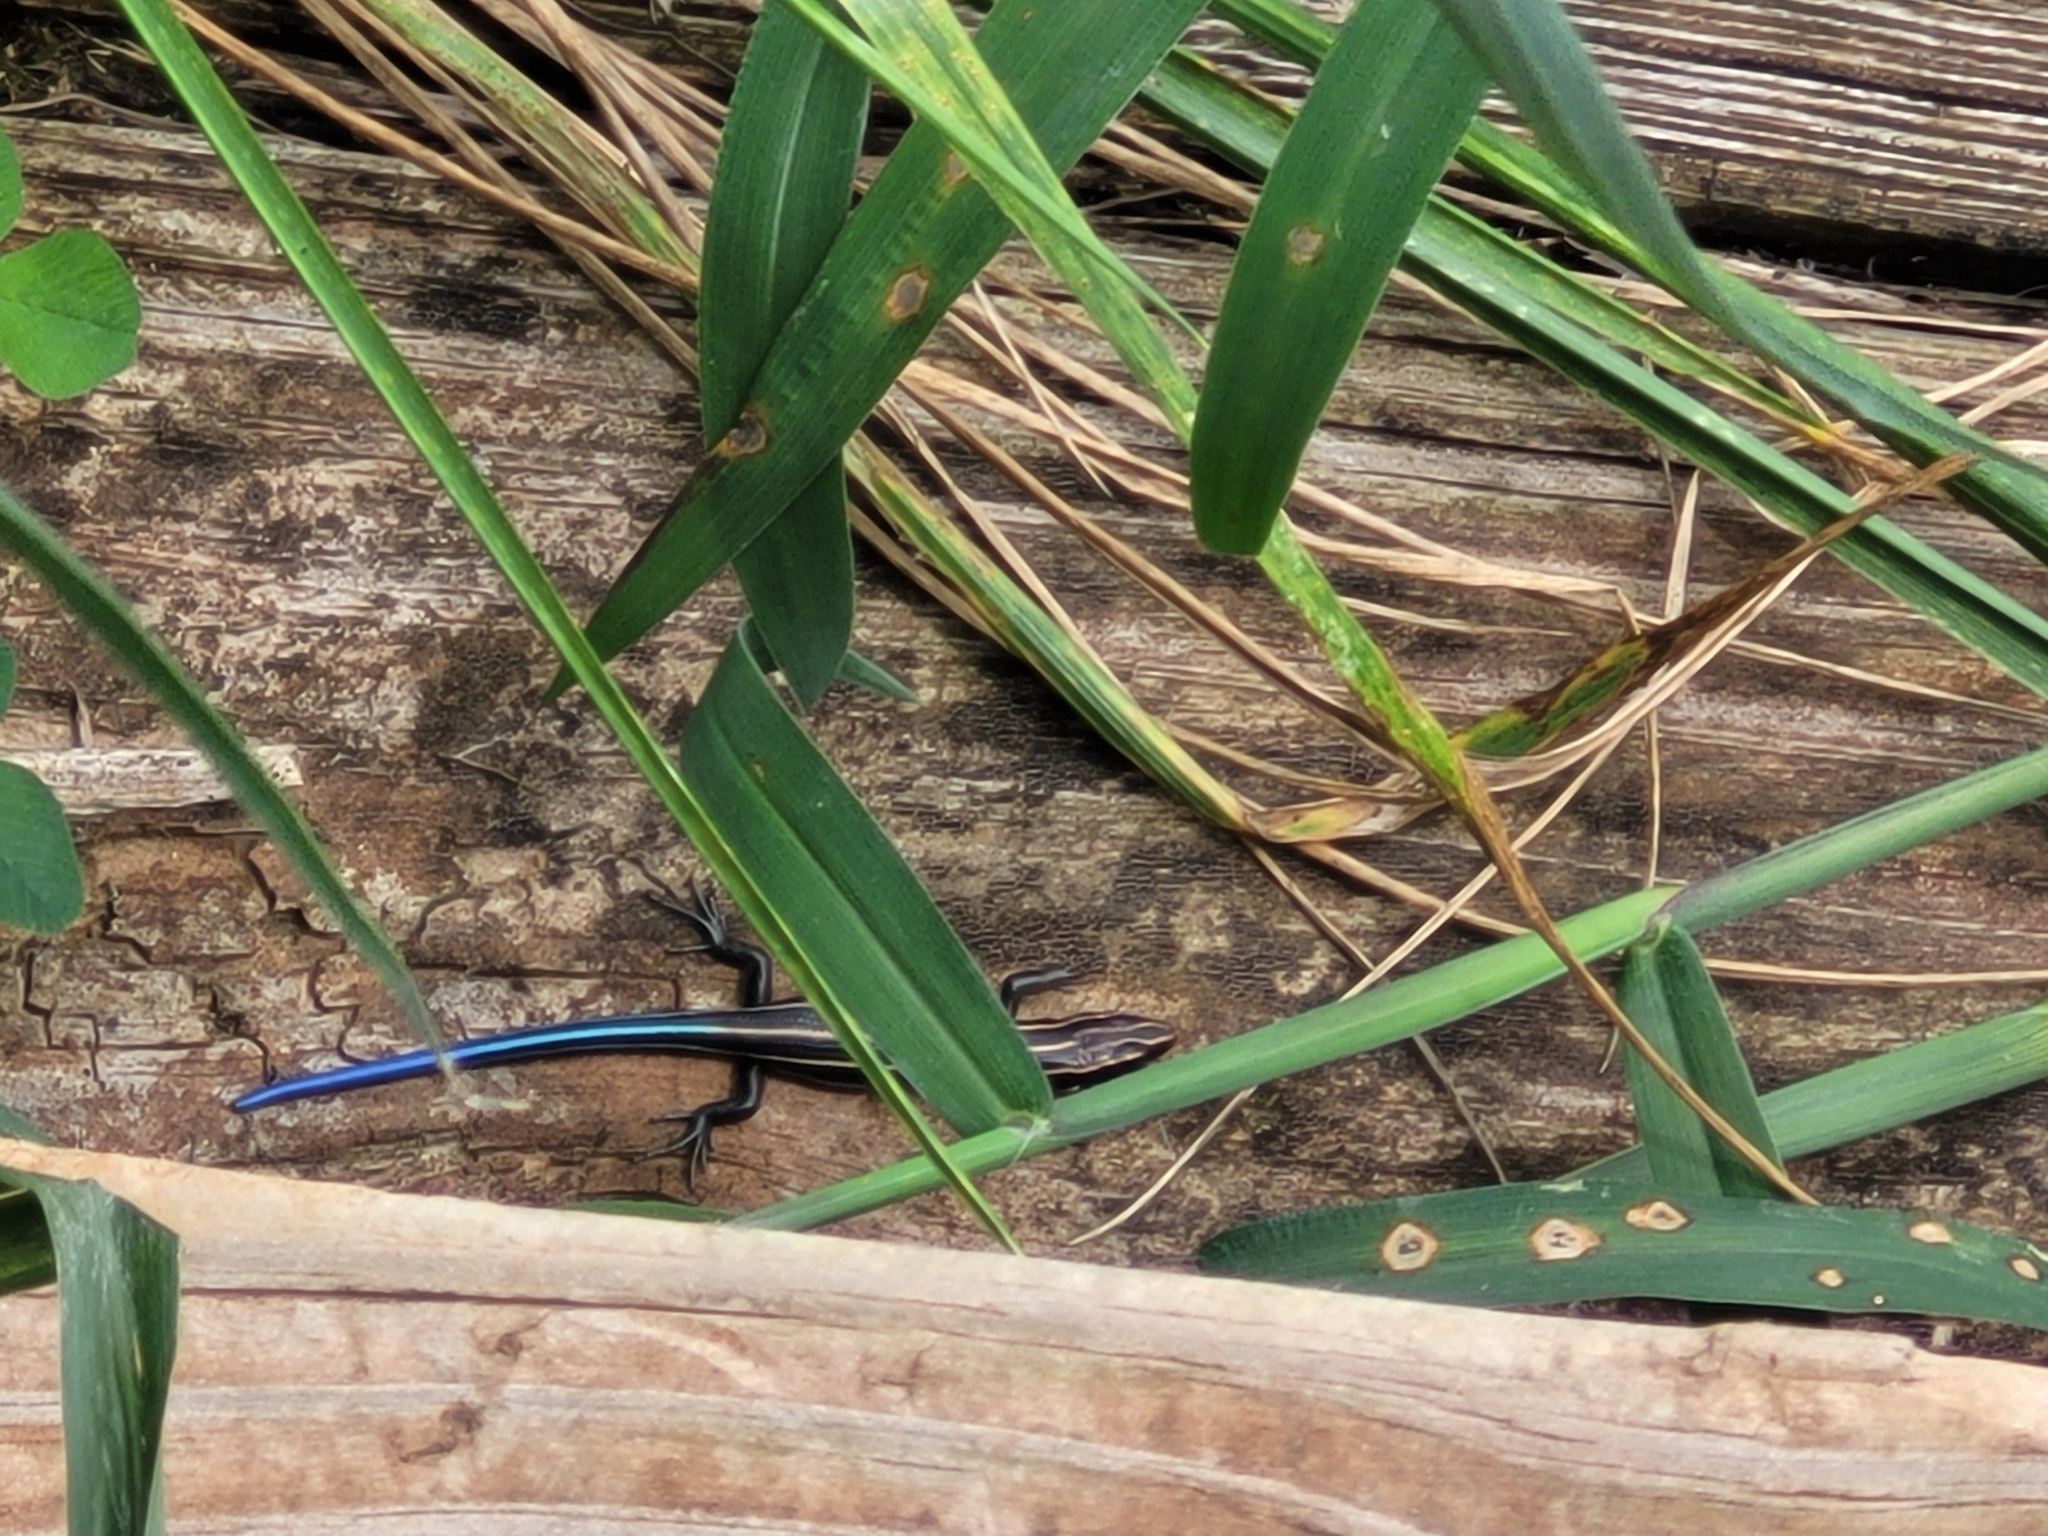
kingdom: Animalia
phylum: Chordata
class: Squamata
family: Scincidae
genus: Plestiodon
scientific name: Plestiodon fasciatus
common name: Five-lined skink
